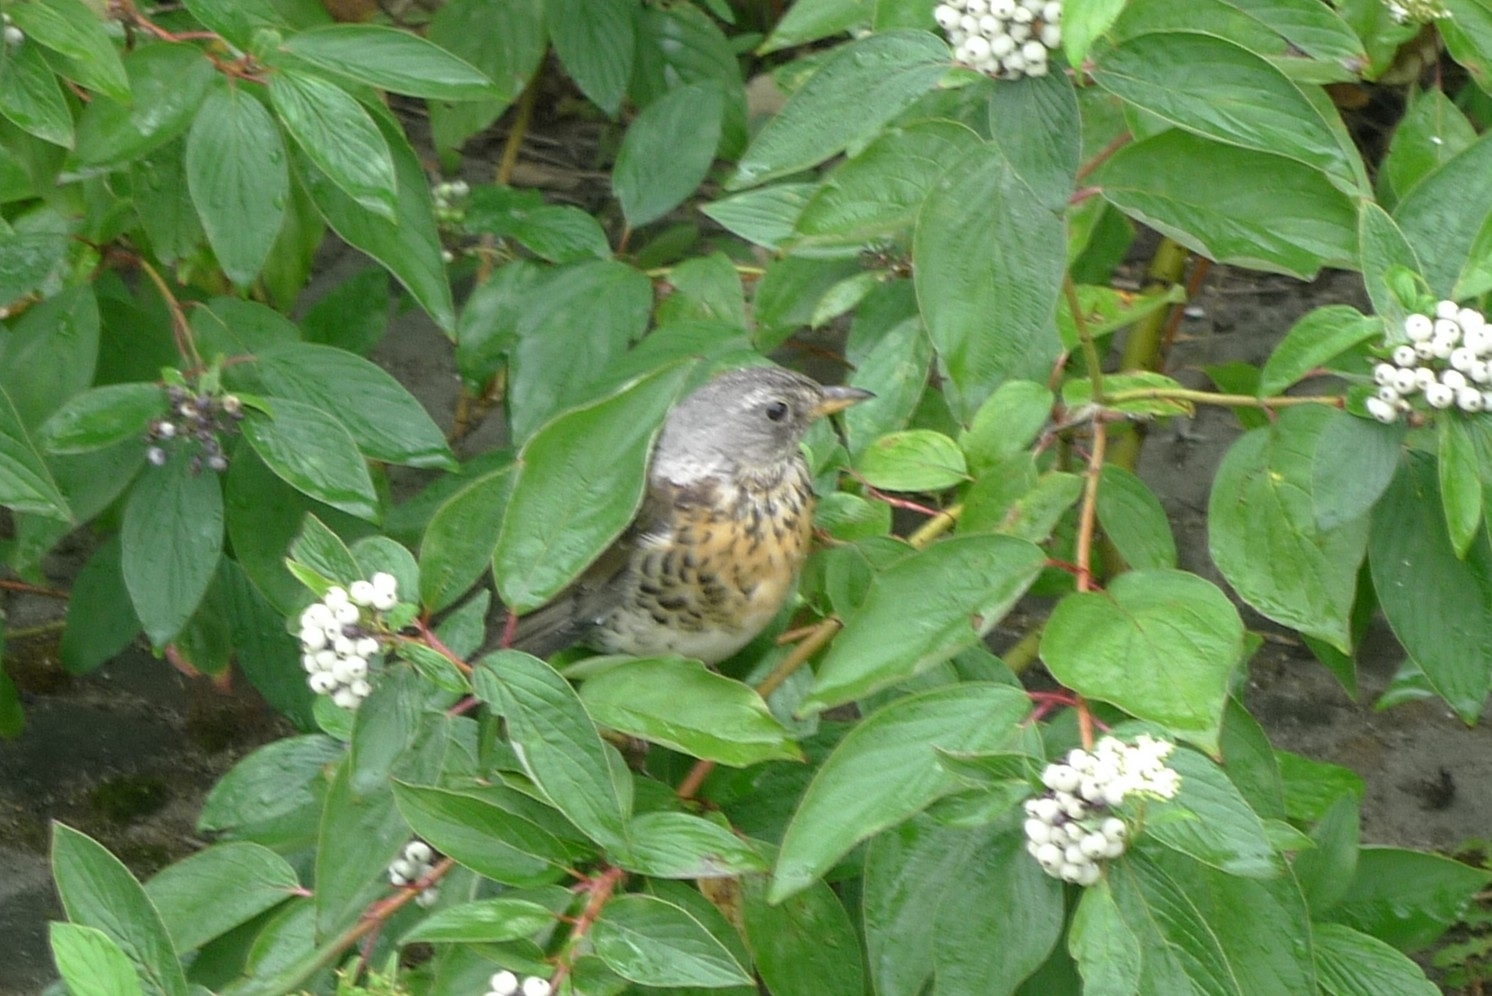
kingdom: Animalia
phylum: Chordata
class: Aves
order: Passeriformes
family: Turdidae
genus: Turdus
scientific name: Turdus pilaris
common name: Fieldfare
